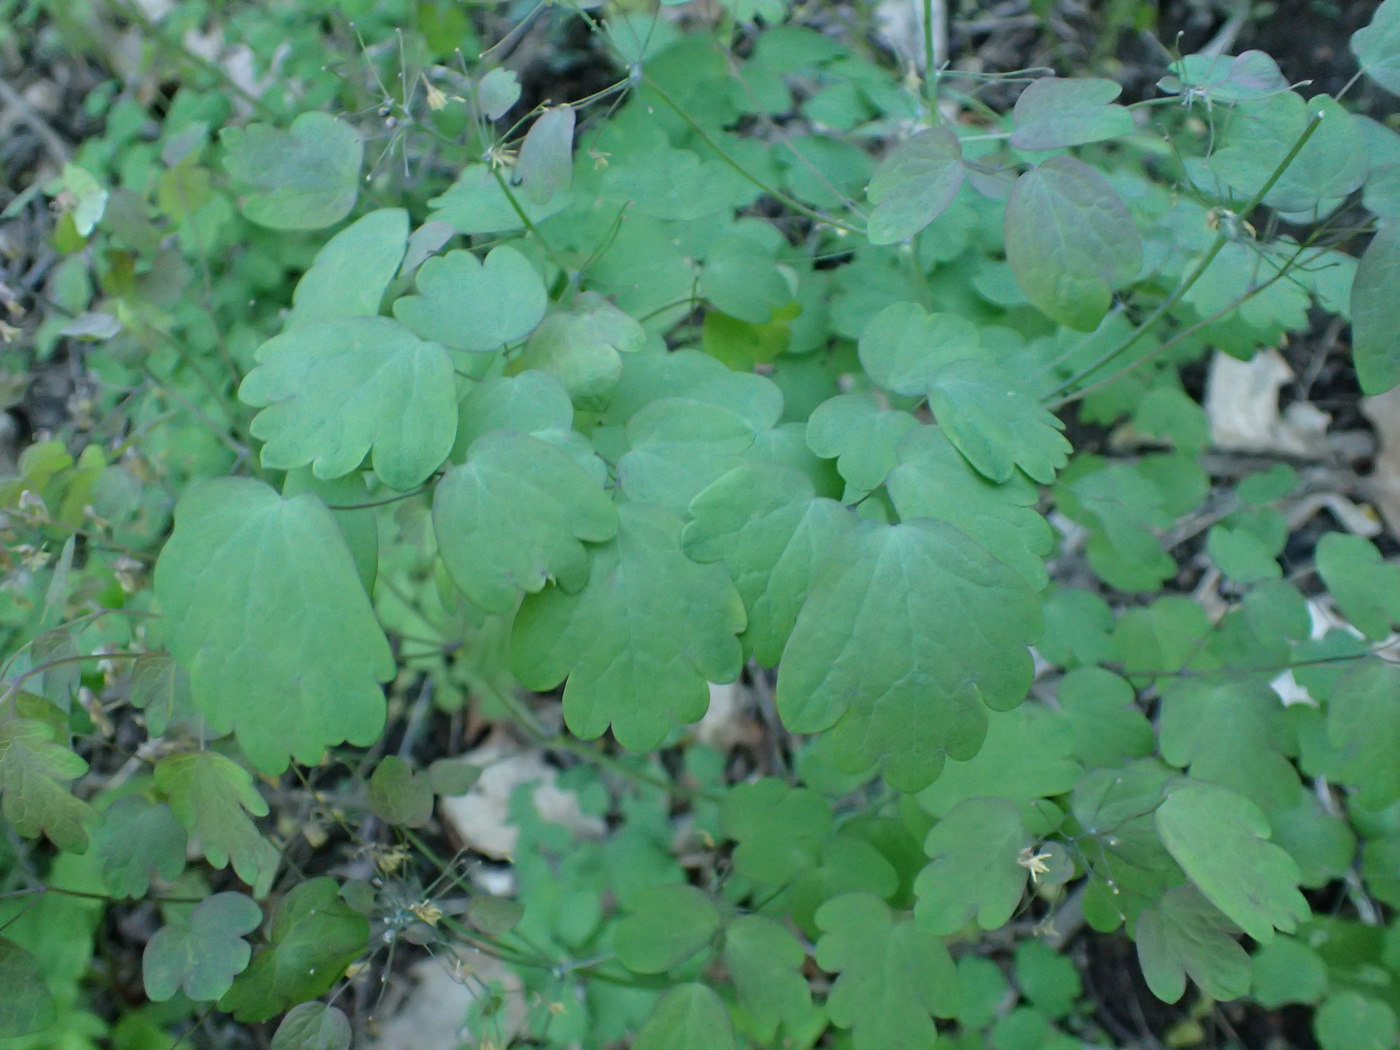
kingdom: Plantae
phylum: Tracheophyta
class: Magnoliopsida
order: Ranunculales
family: Ranunculaceae
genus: Thalictrum
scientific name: Thalictrum dioicum
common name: Early meadow-rue
